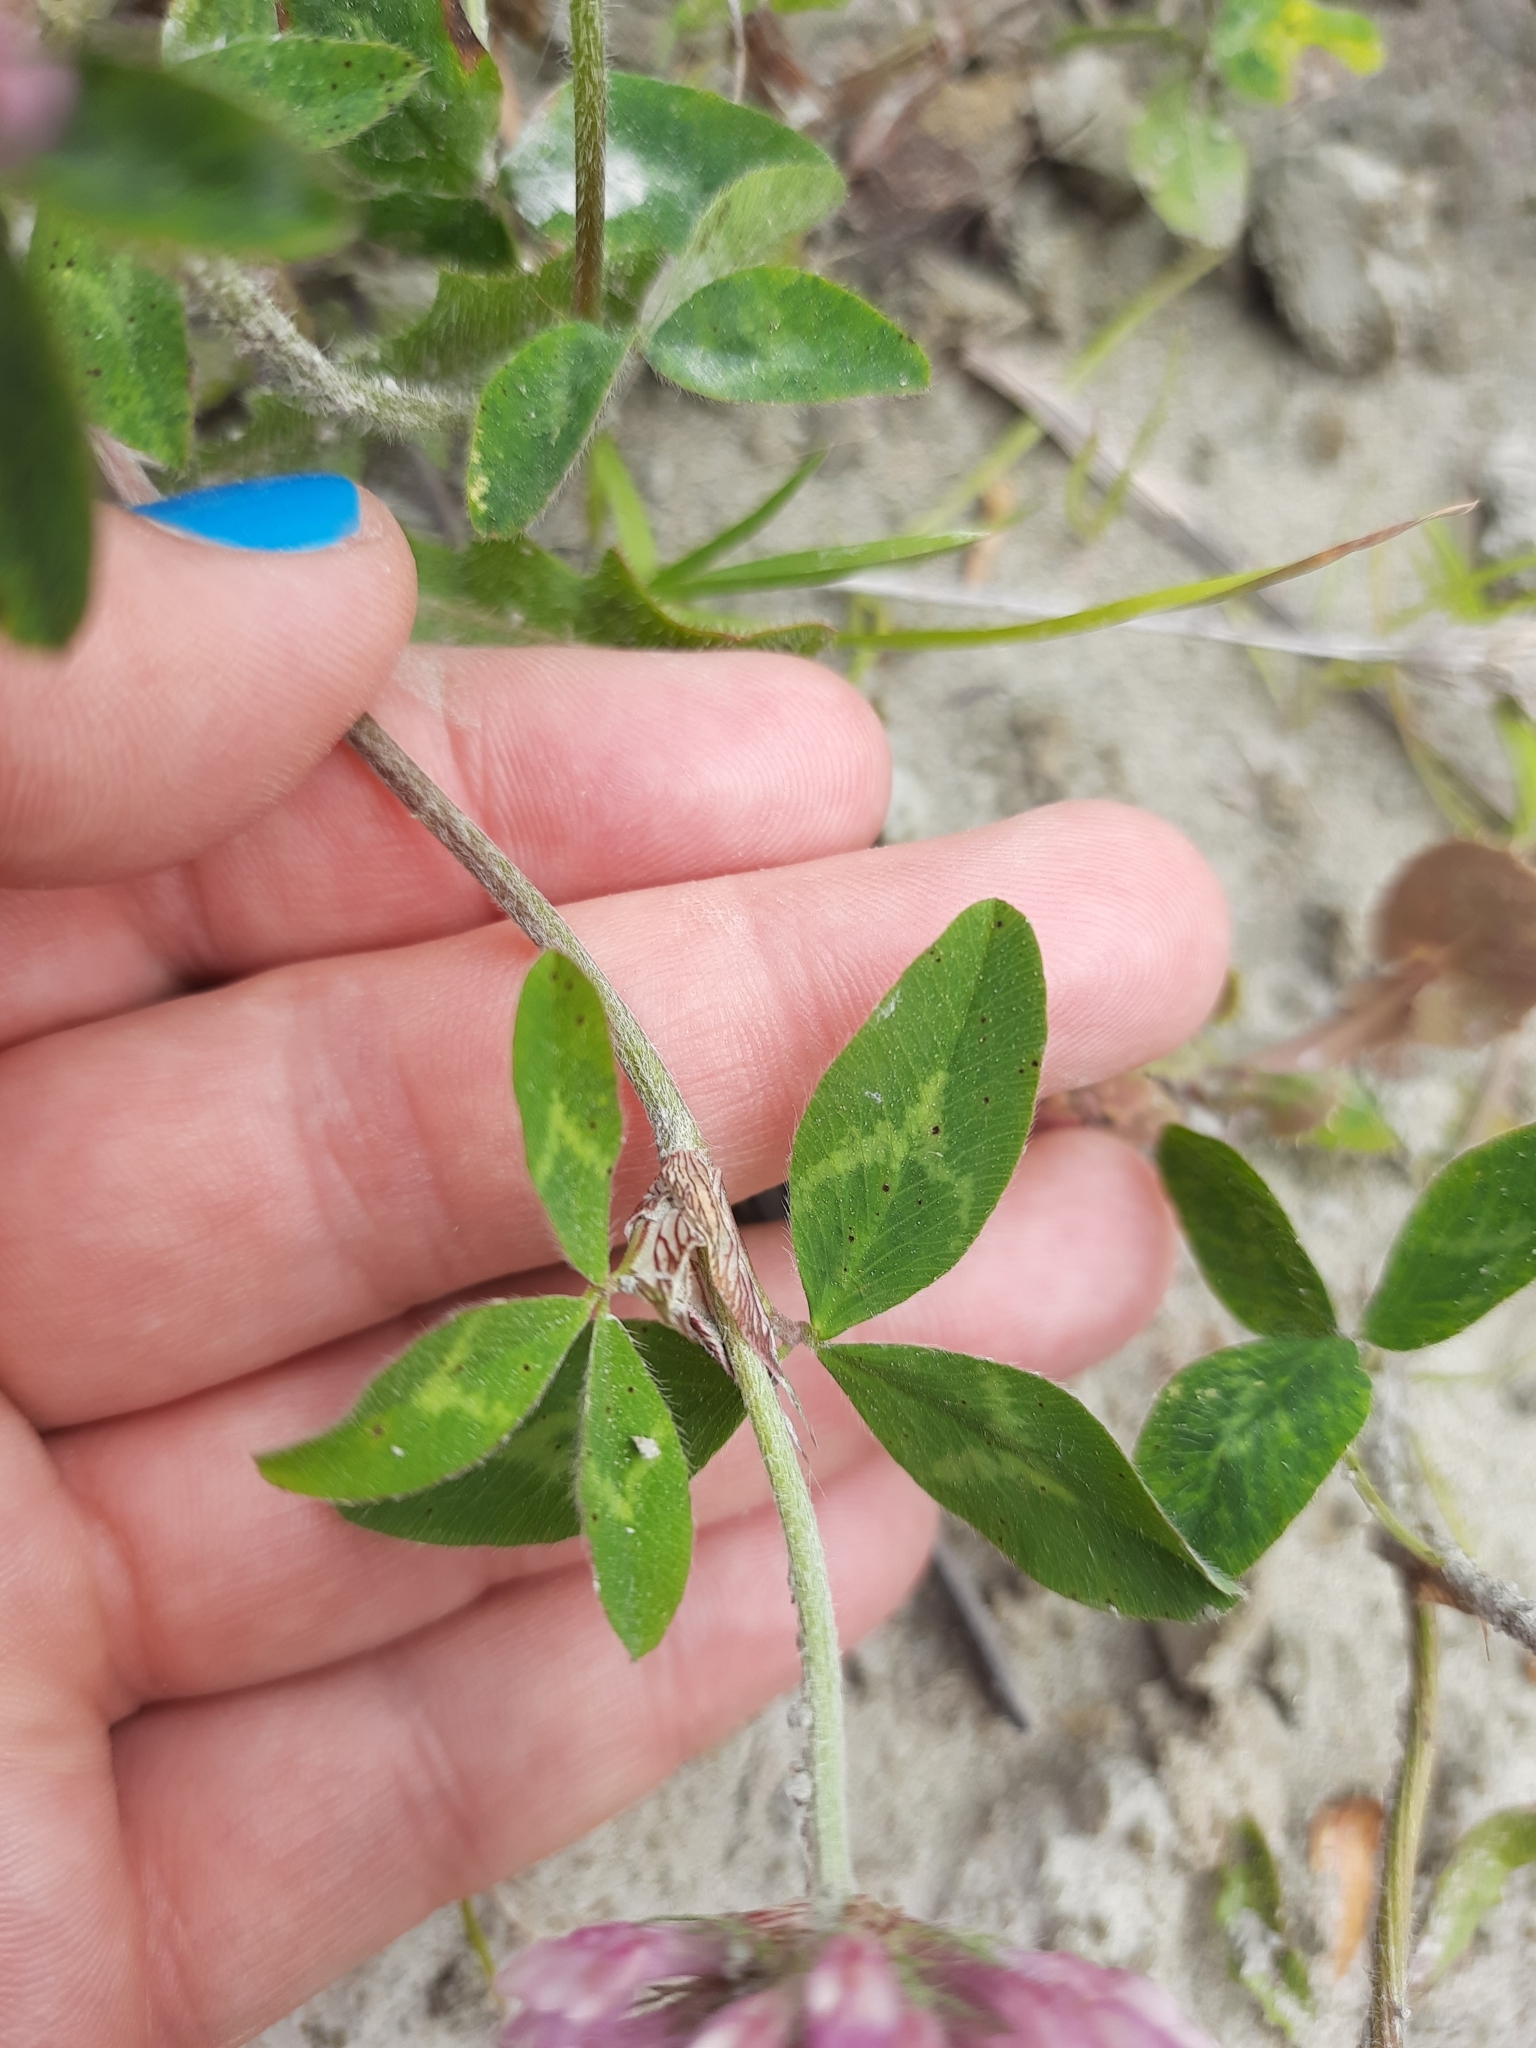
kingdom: Plantae
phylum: Tracheophyta
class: Magnoliopsida
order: Fabales
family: Fabaceae
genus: Trifolium
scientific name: Trifolium pratense
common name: Red clover
